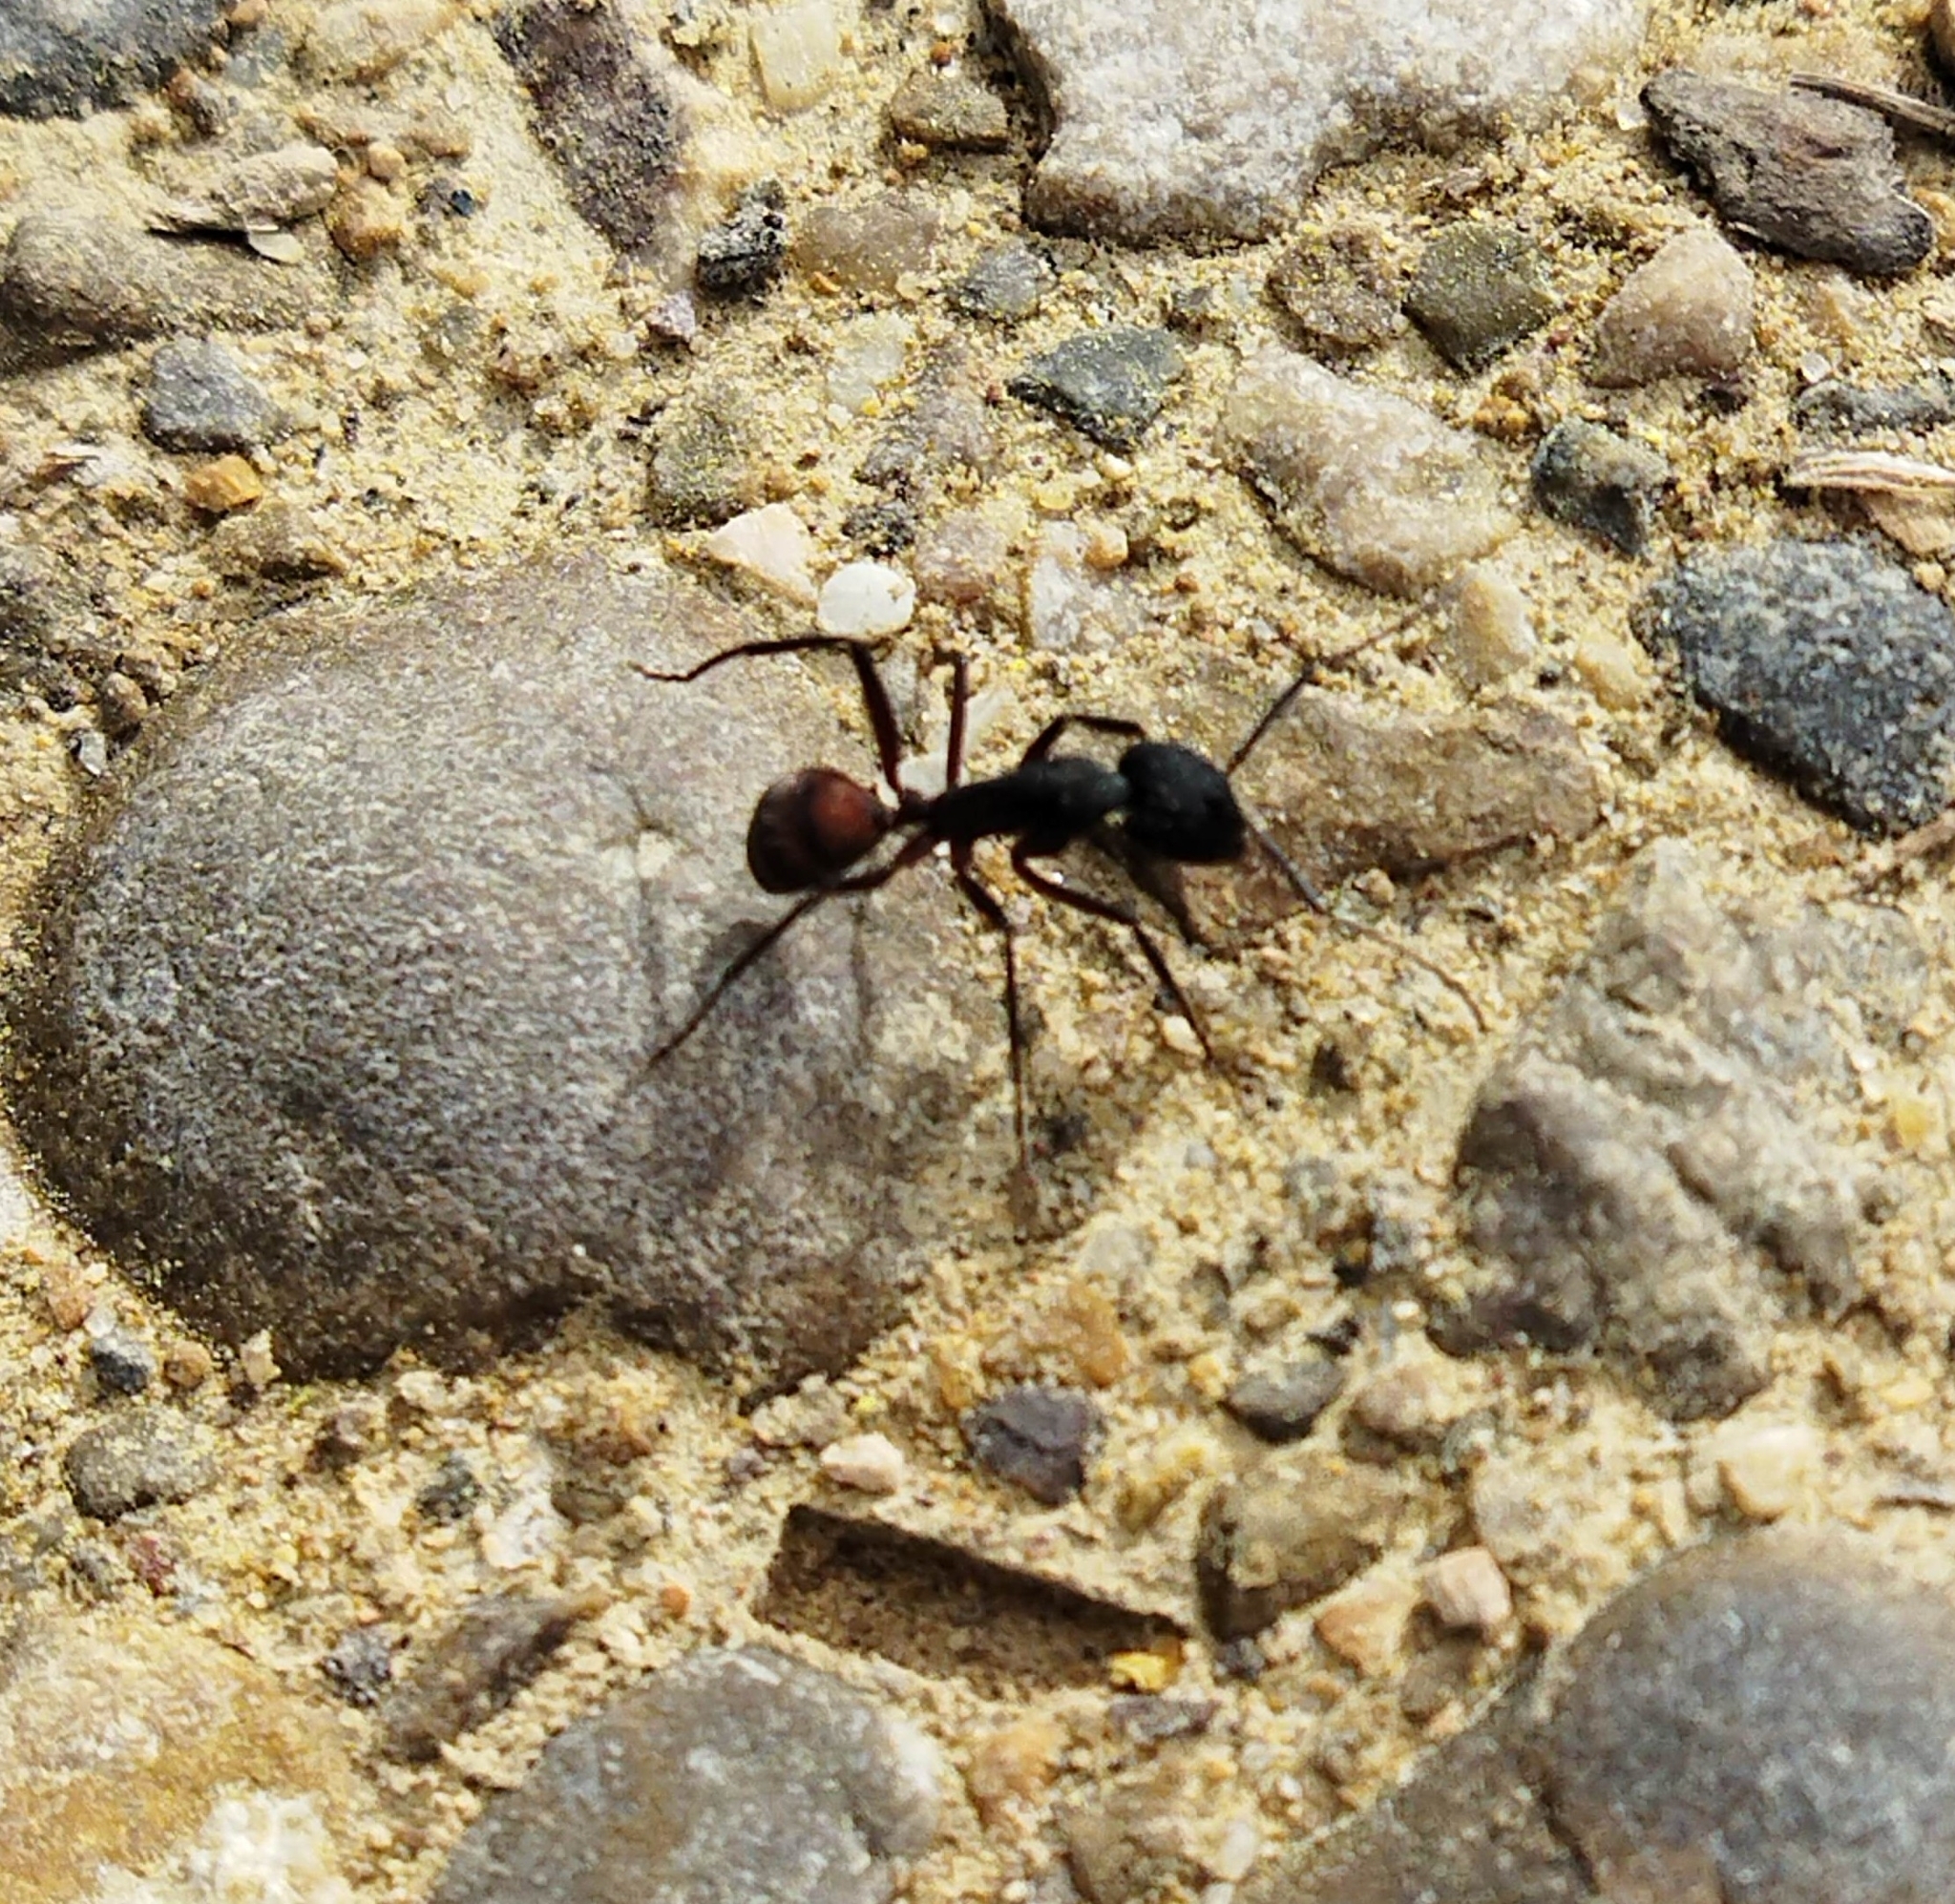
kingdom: Animalia
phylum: Arthropoda
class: Insecta
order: Hymenoptera
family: Formicidae
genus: Camponotus
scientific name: Camponotus cruentatus
